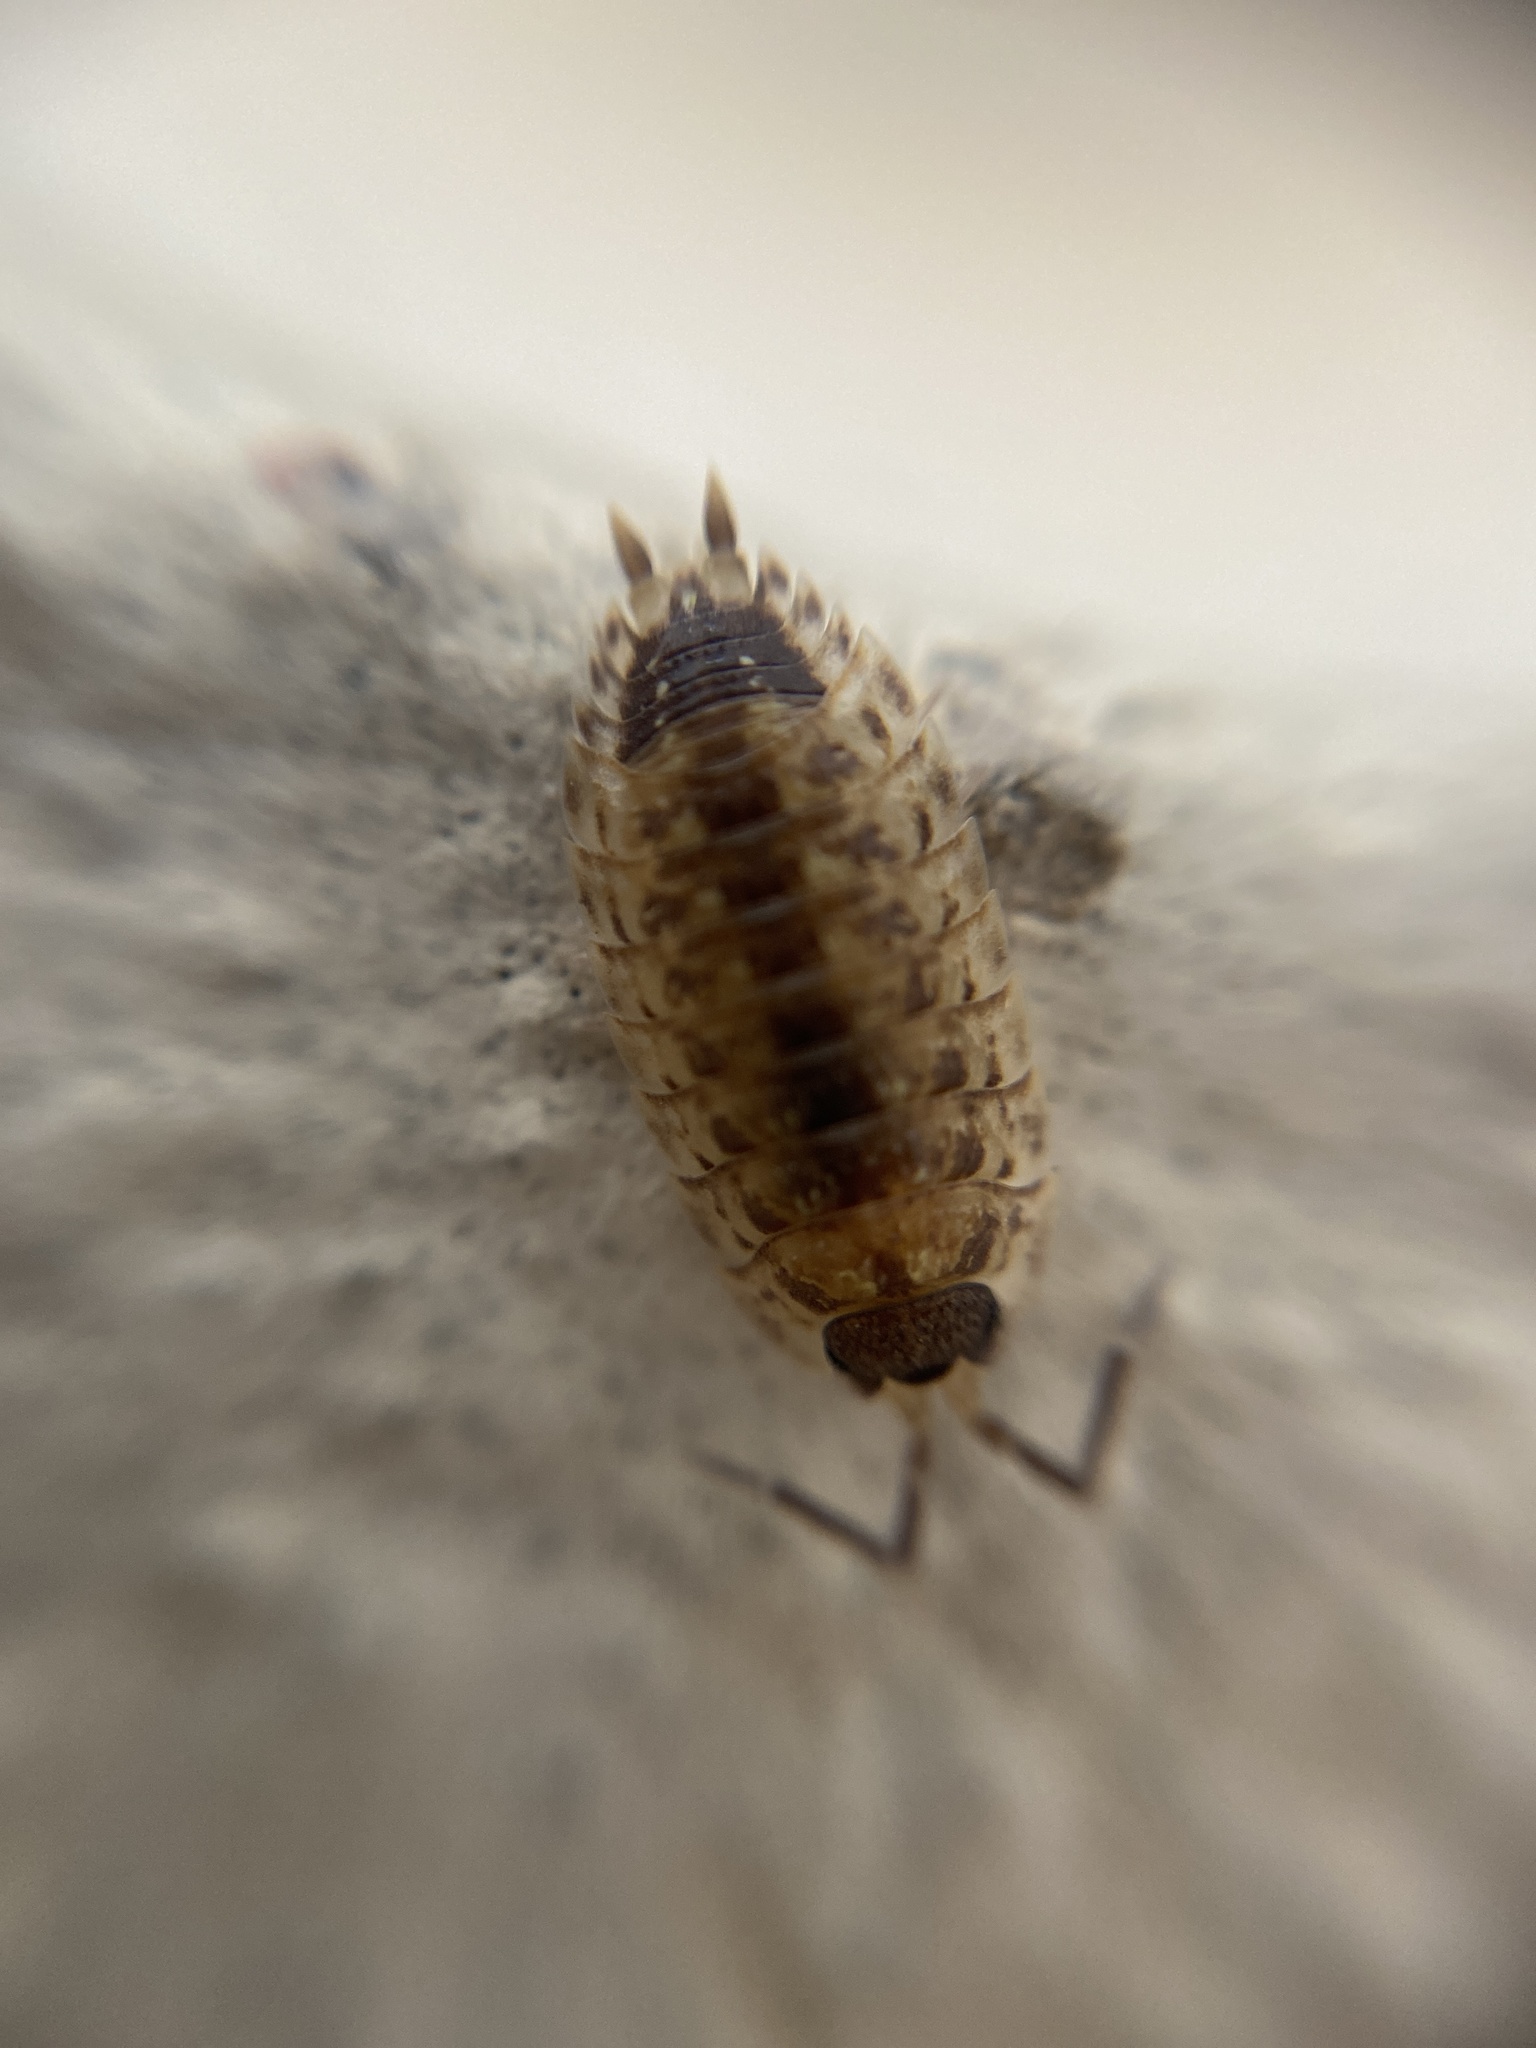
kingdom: Animalia
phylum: Arthropoda
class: Malacostraca
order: Isopoda
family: Porcellionidae
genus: Porcellio
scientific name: Porcellio spinicornis
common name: Painted woodlouse
